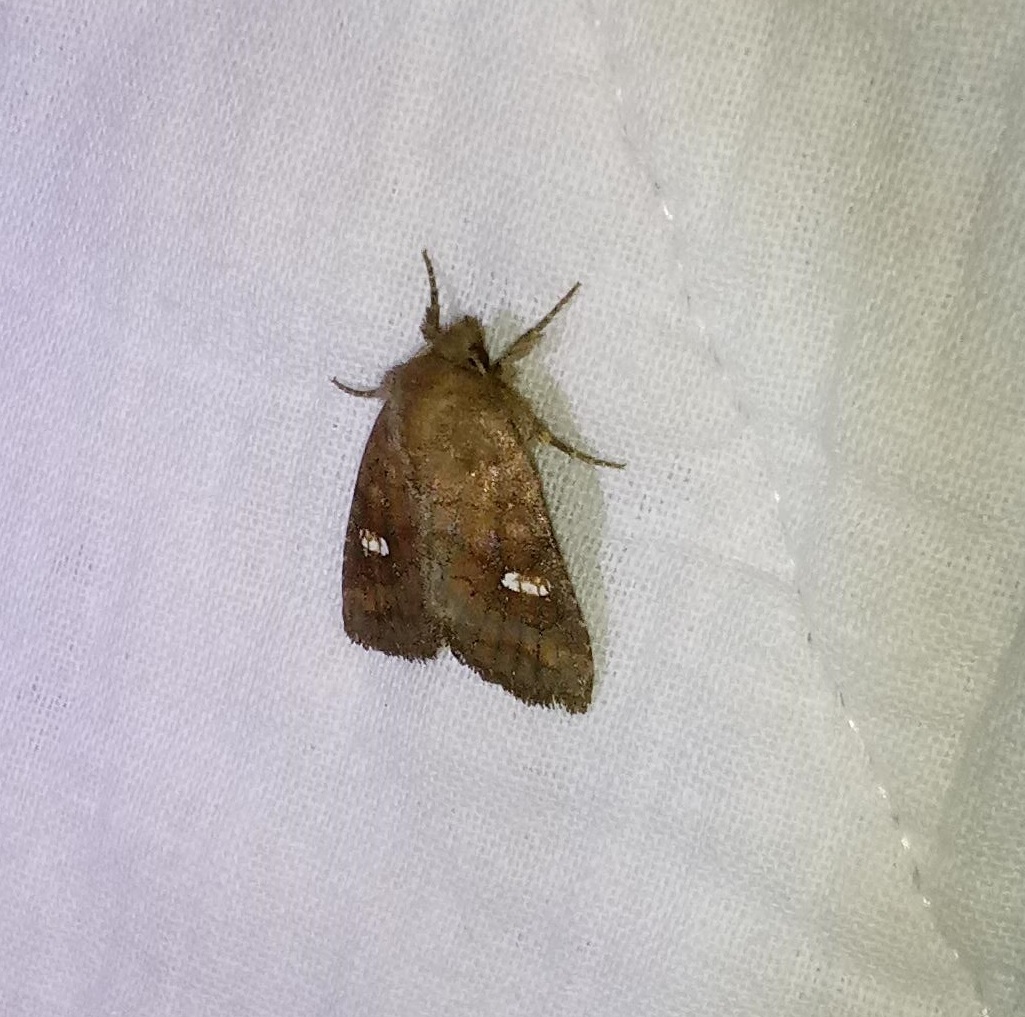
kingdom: Animalia
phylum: Arthropoda
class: Insecta
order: Lepidoptera
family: Noctuidae
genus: Tricholita
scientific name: Tricholita signata
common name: Signate quaker
